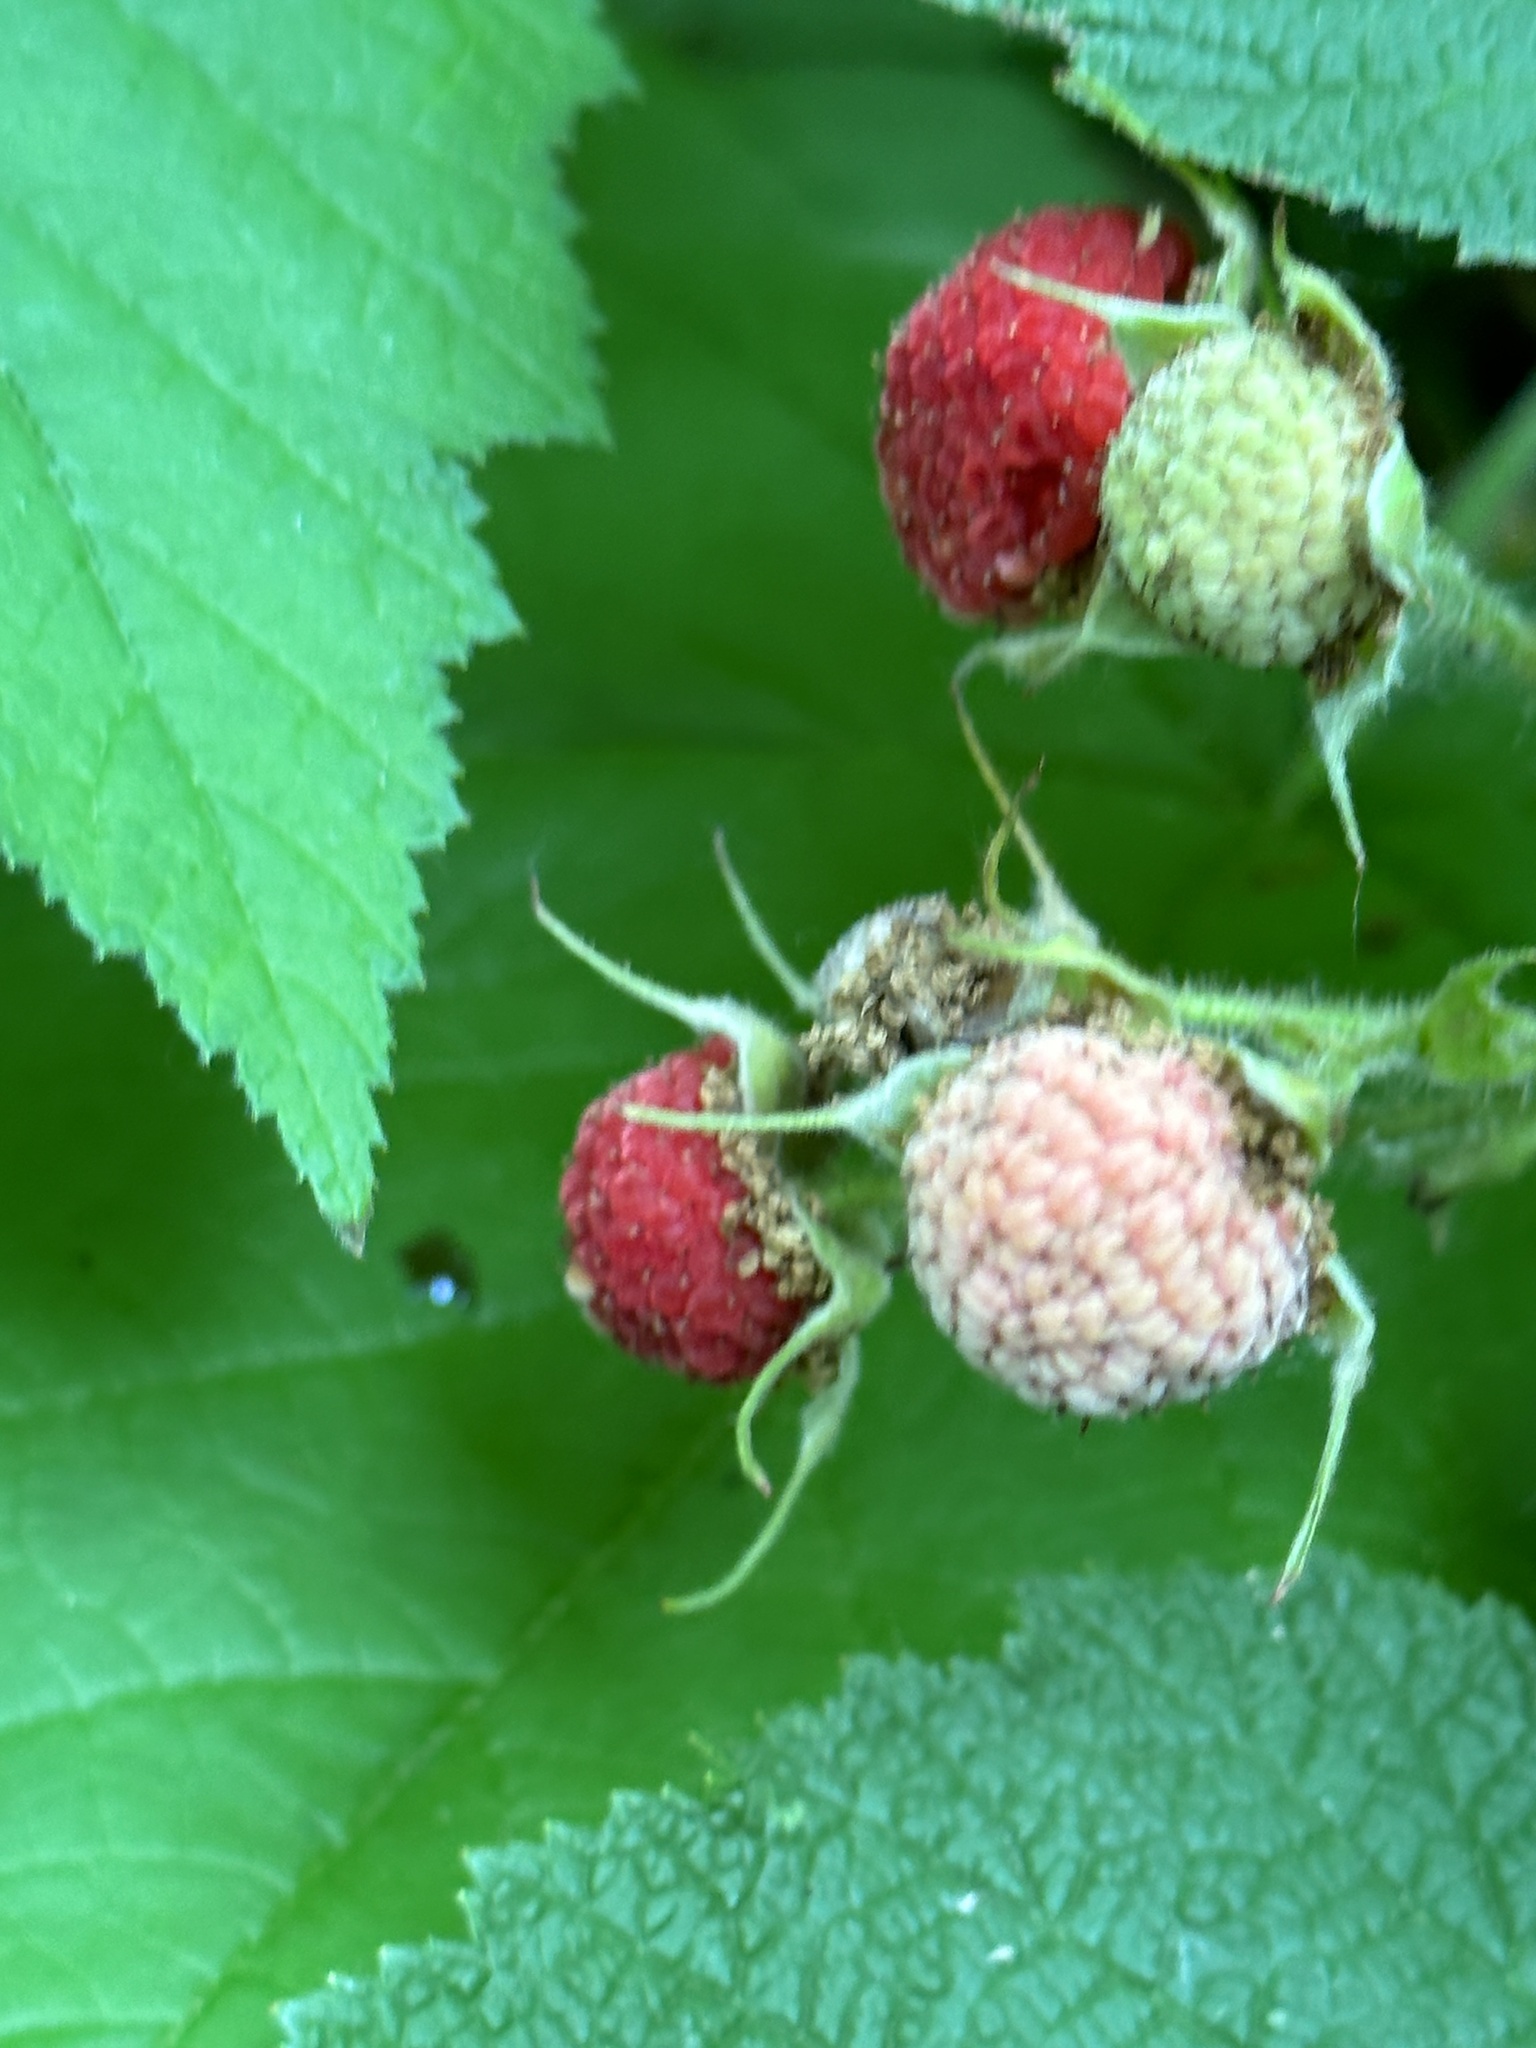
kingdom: Plantae
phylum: Tracheophyta
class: Magnoliopsida
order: Rosales
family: Rosaceae
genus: Rubus
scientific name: Rubus parviflorus
